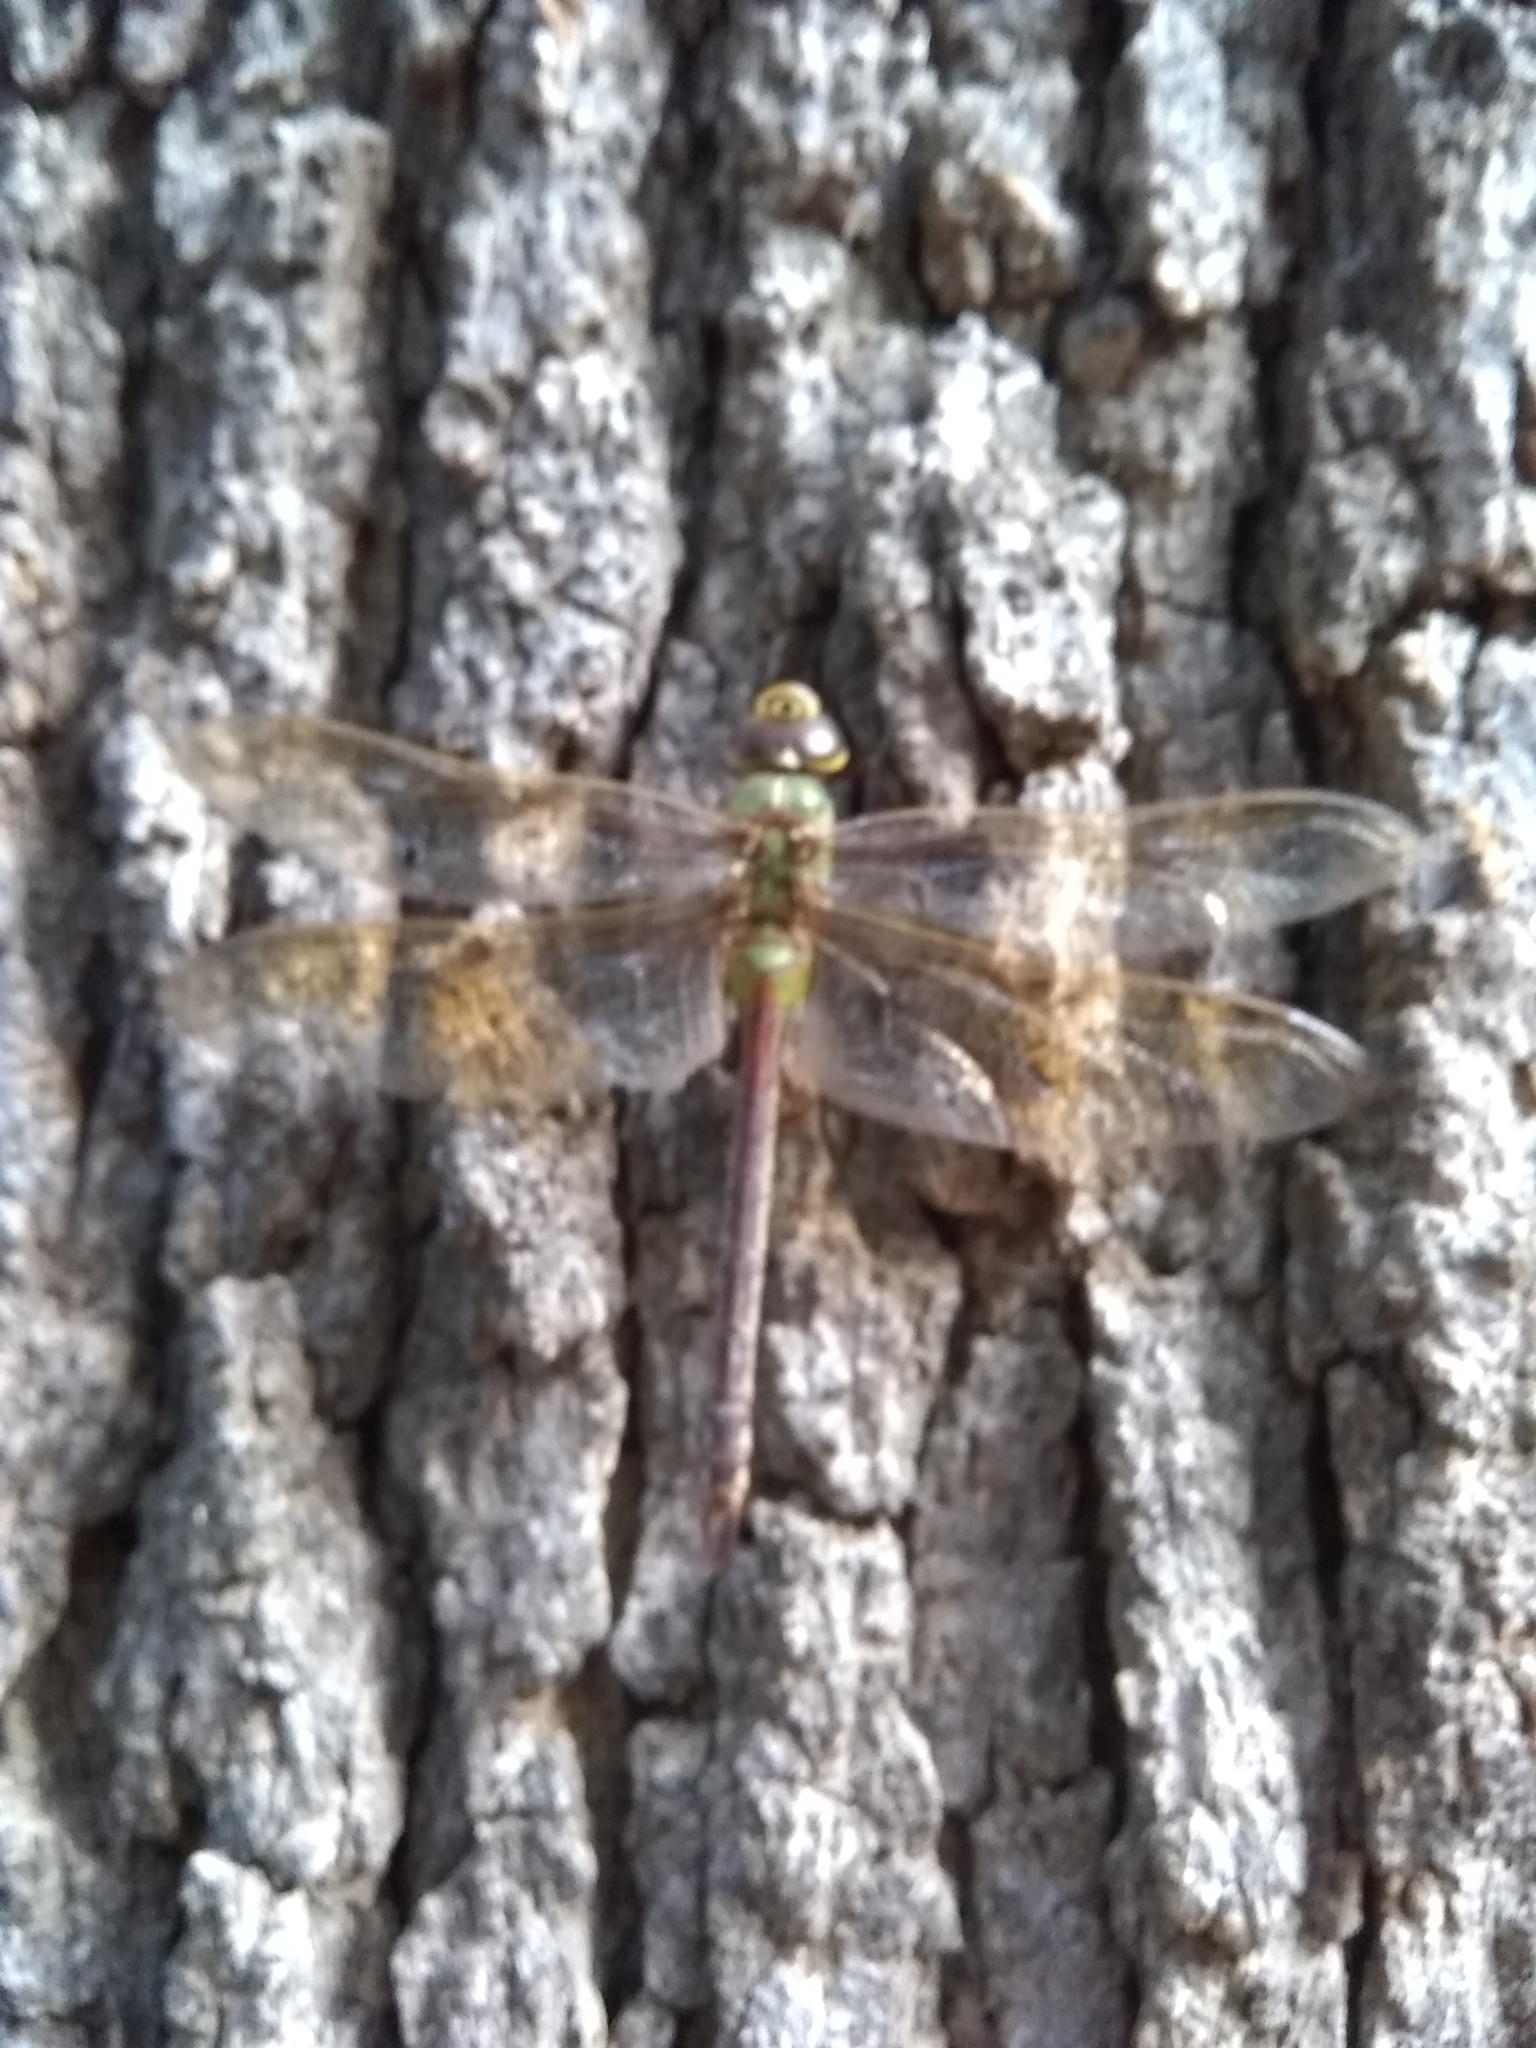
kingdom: Animalia
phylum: Arthropoda
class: Insecta
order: Odonata
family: Aeshnidae
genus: Anax
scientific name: Anax junius
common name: Common green darner
